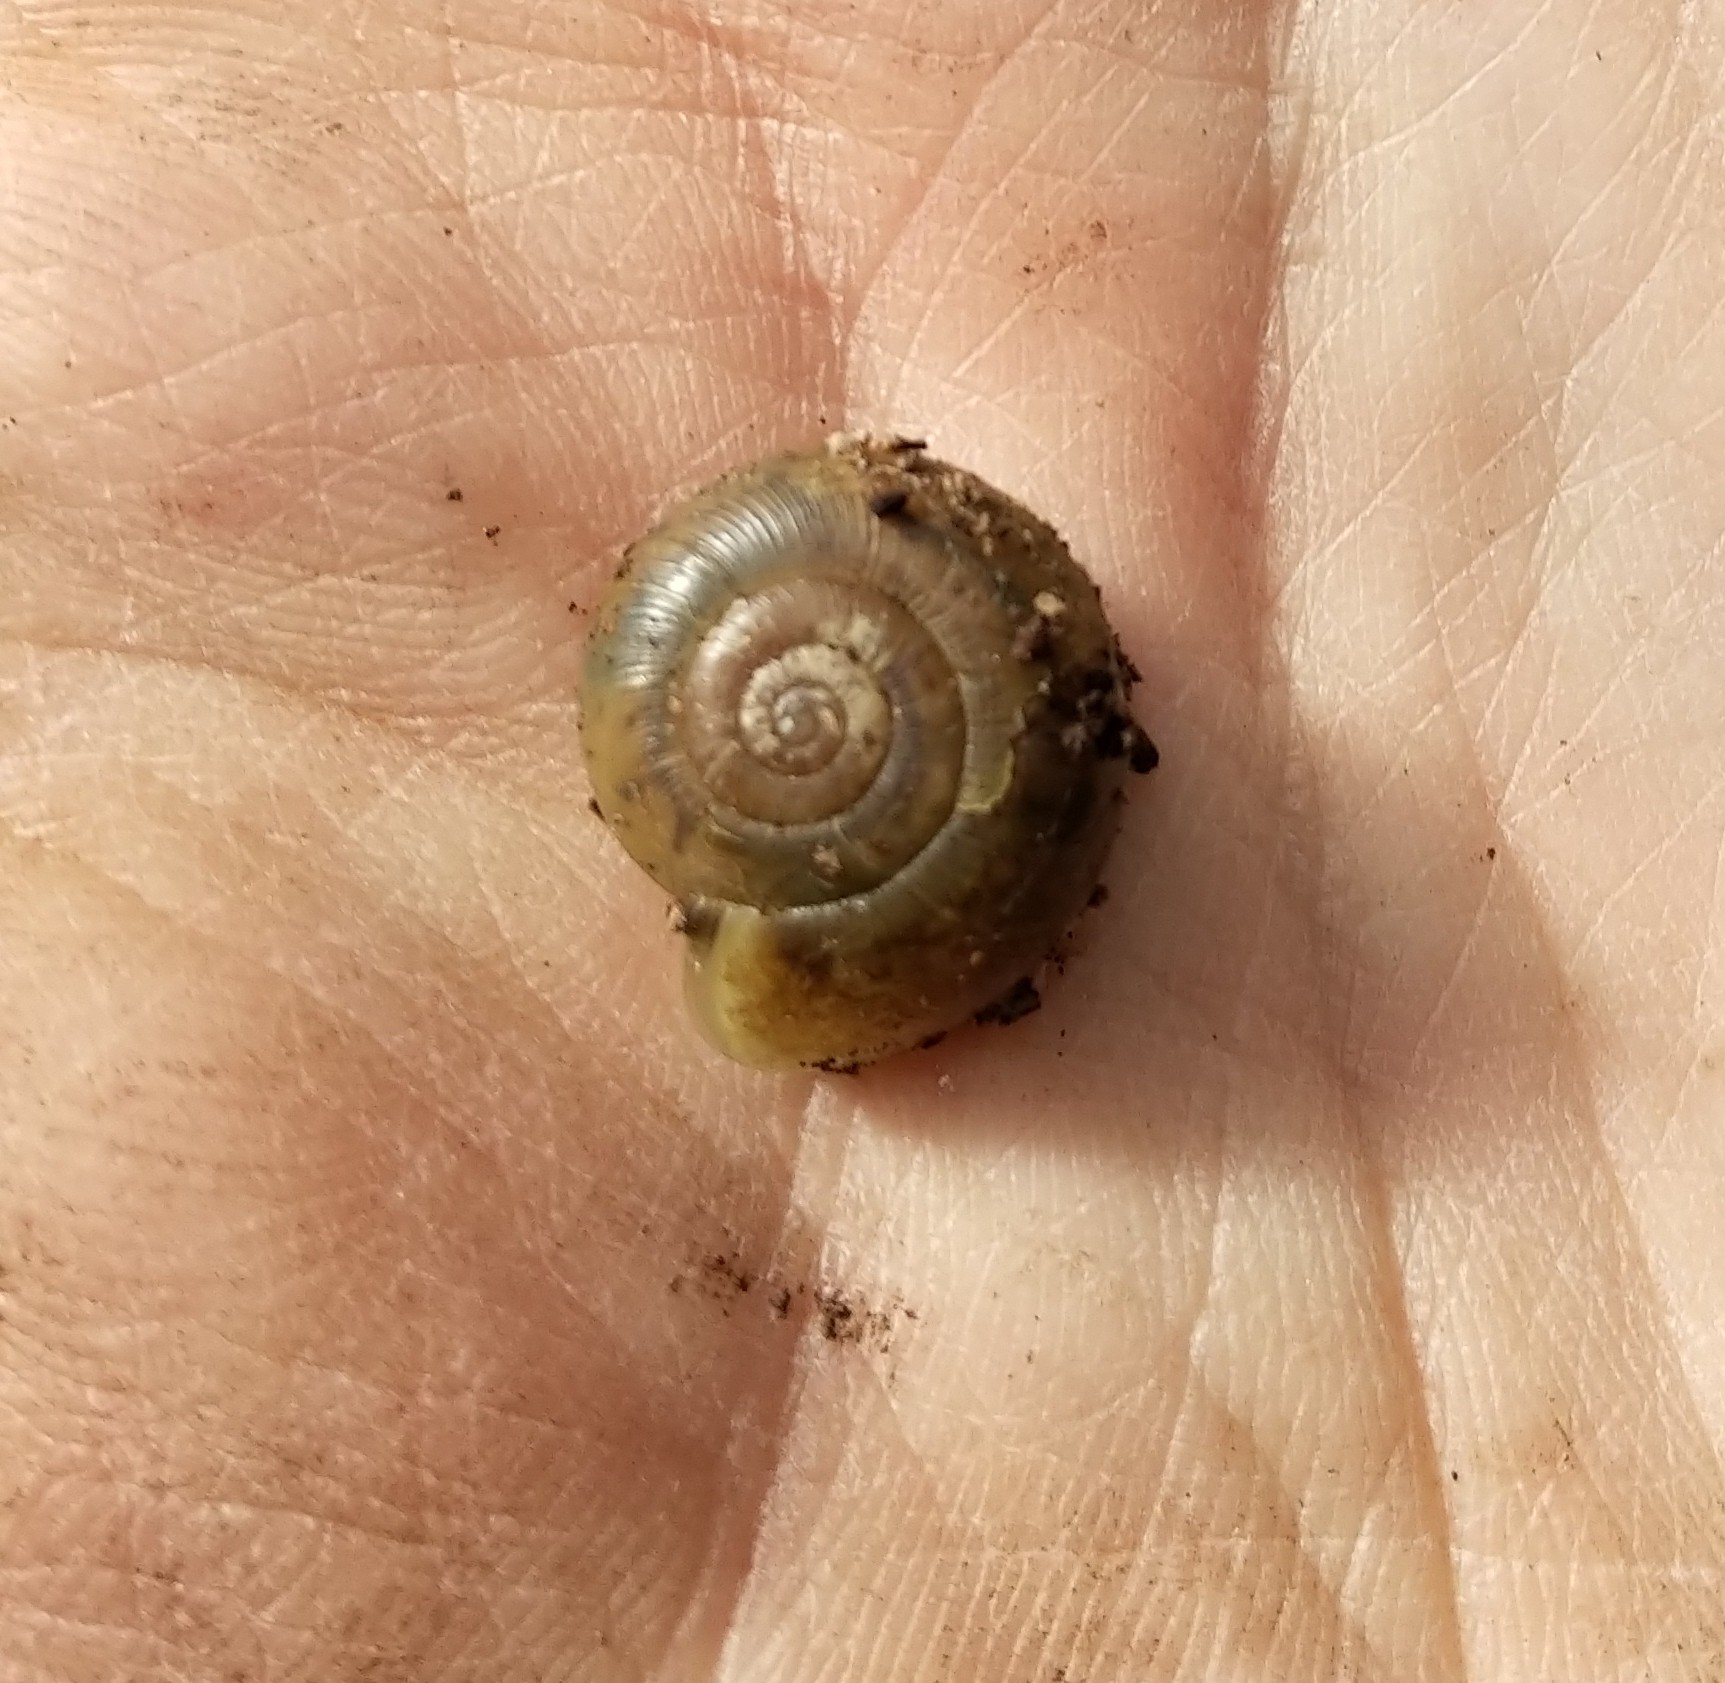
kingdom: Animalia
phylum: Mollusca
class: Gastropoda
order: Stylommatophora
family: Haplotrematidae
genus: Haplotrema
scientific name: Haplotrema minimum
